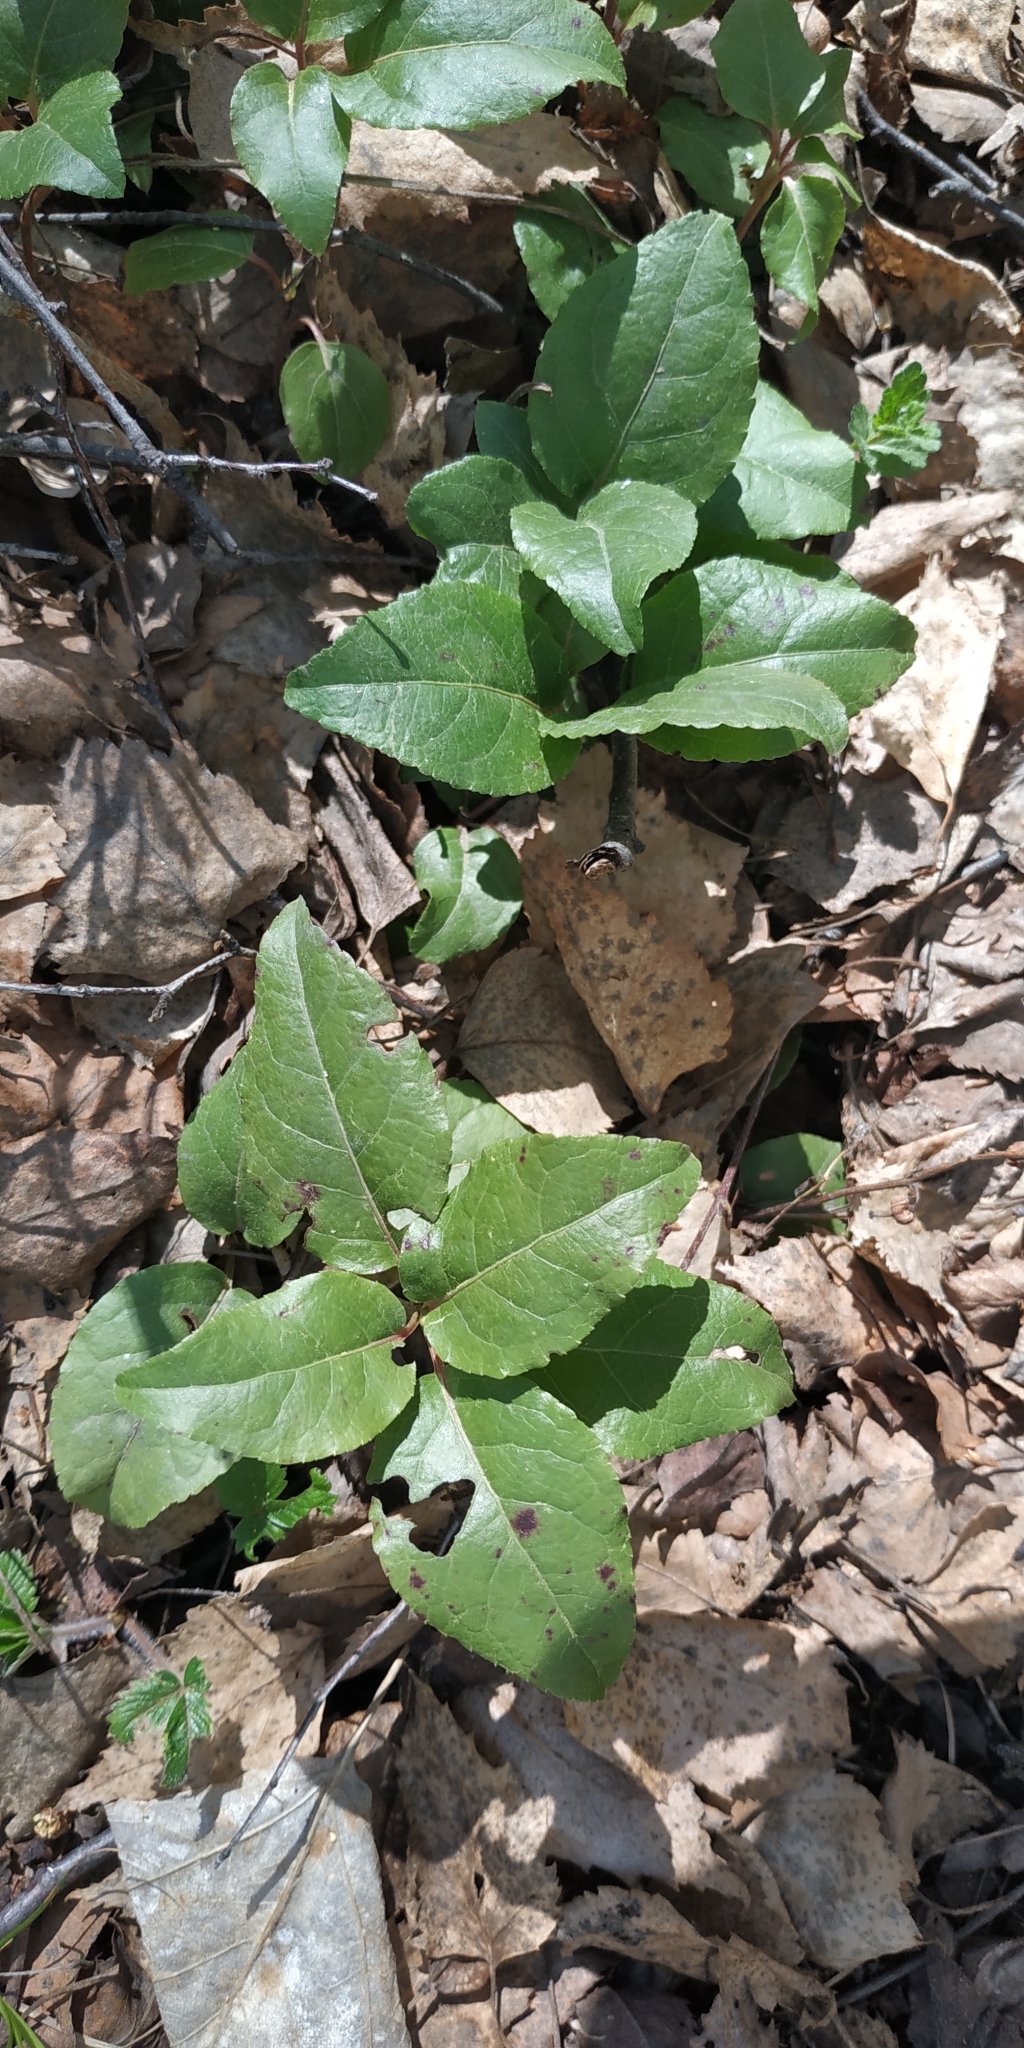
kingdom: Plantae
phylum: Tracheophyta
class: Magnoliopsida
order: Ericales
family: Ericaceae
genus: Orthilia
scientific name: Orthilia secunda
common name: One-sided orthilia
